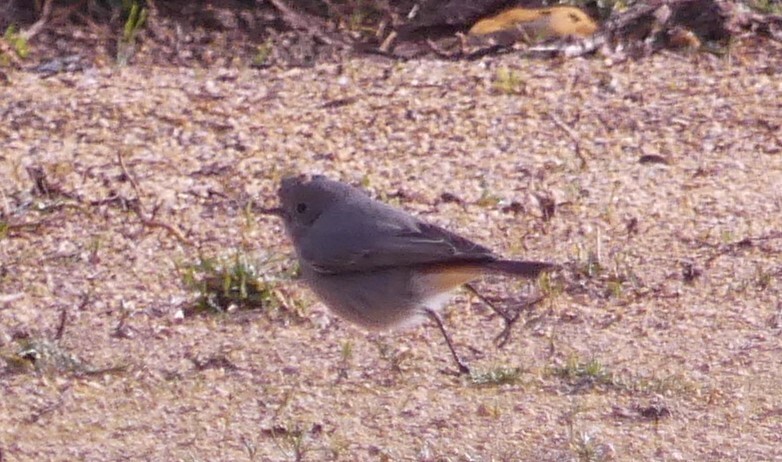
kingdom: Animalia
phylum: Chordata
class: Aves
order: Passeriformes
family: Muscicapidae
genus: Phoenicurus
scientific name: Phoenicurus ochruros
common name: Black redstart
